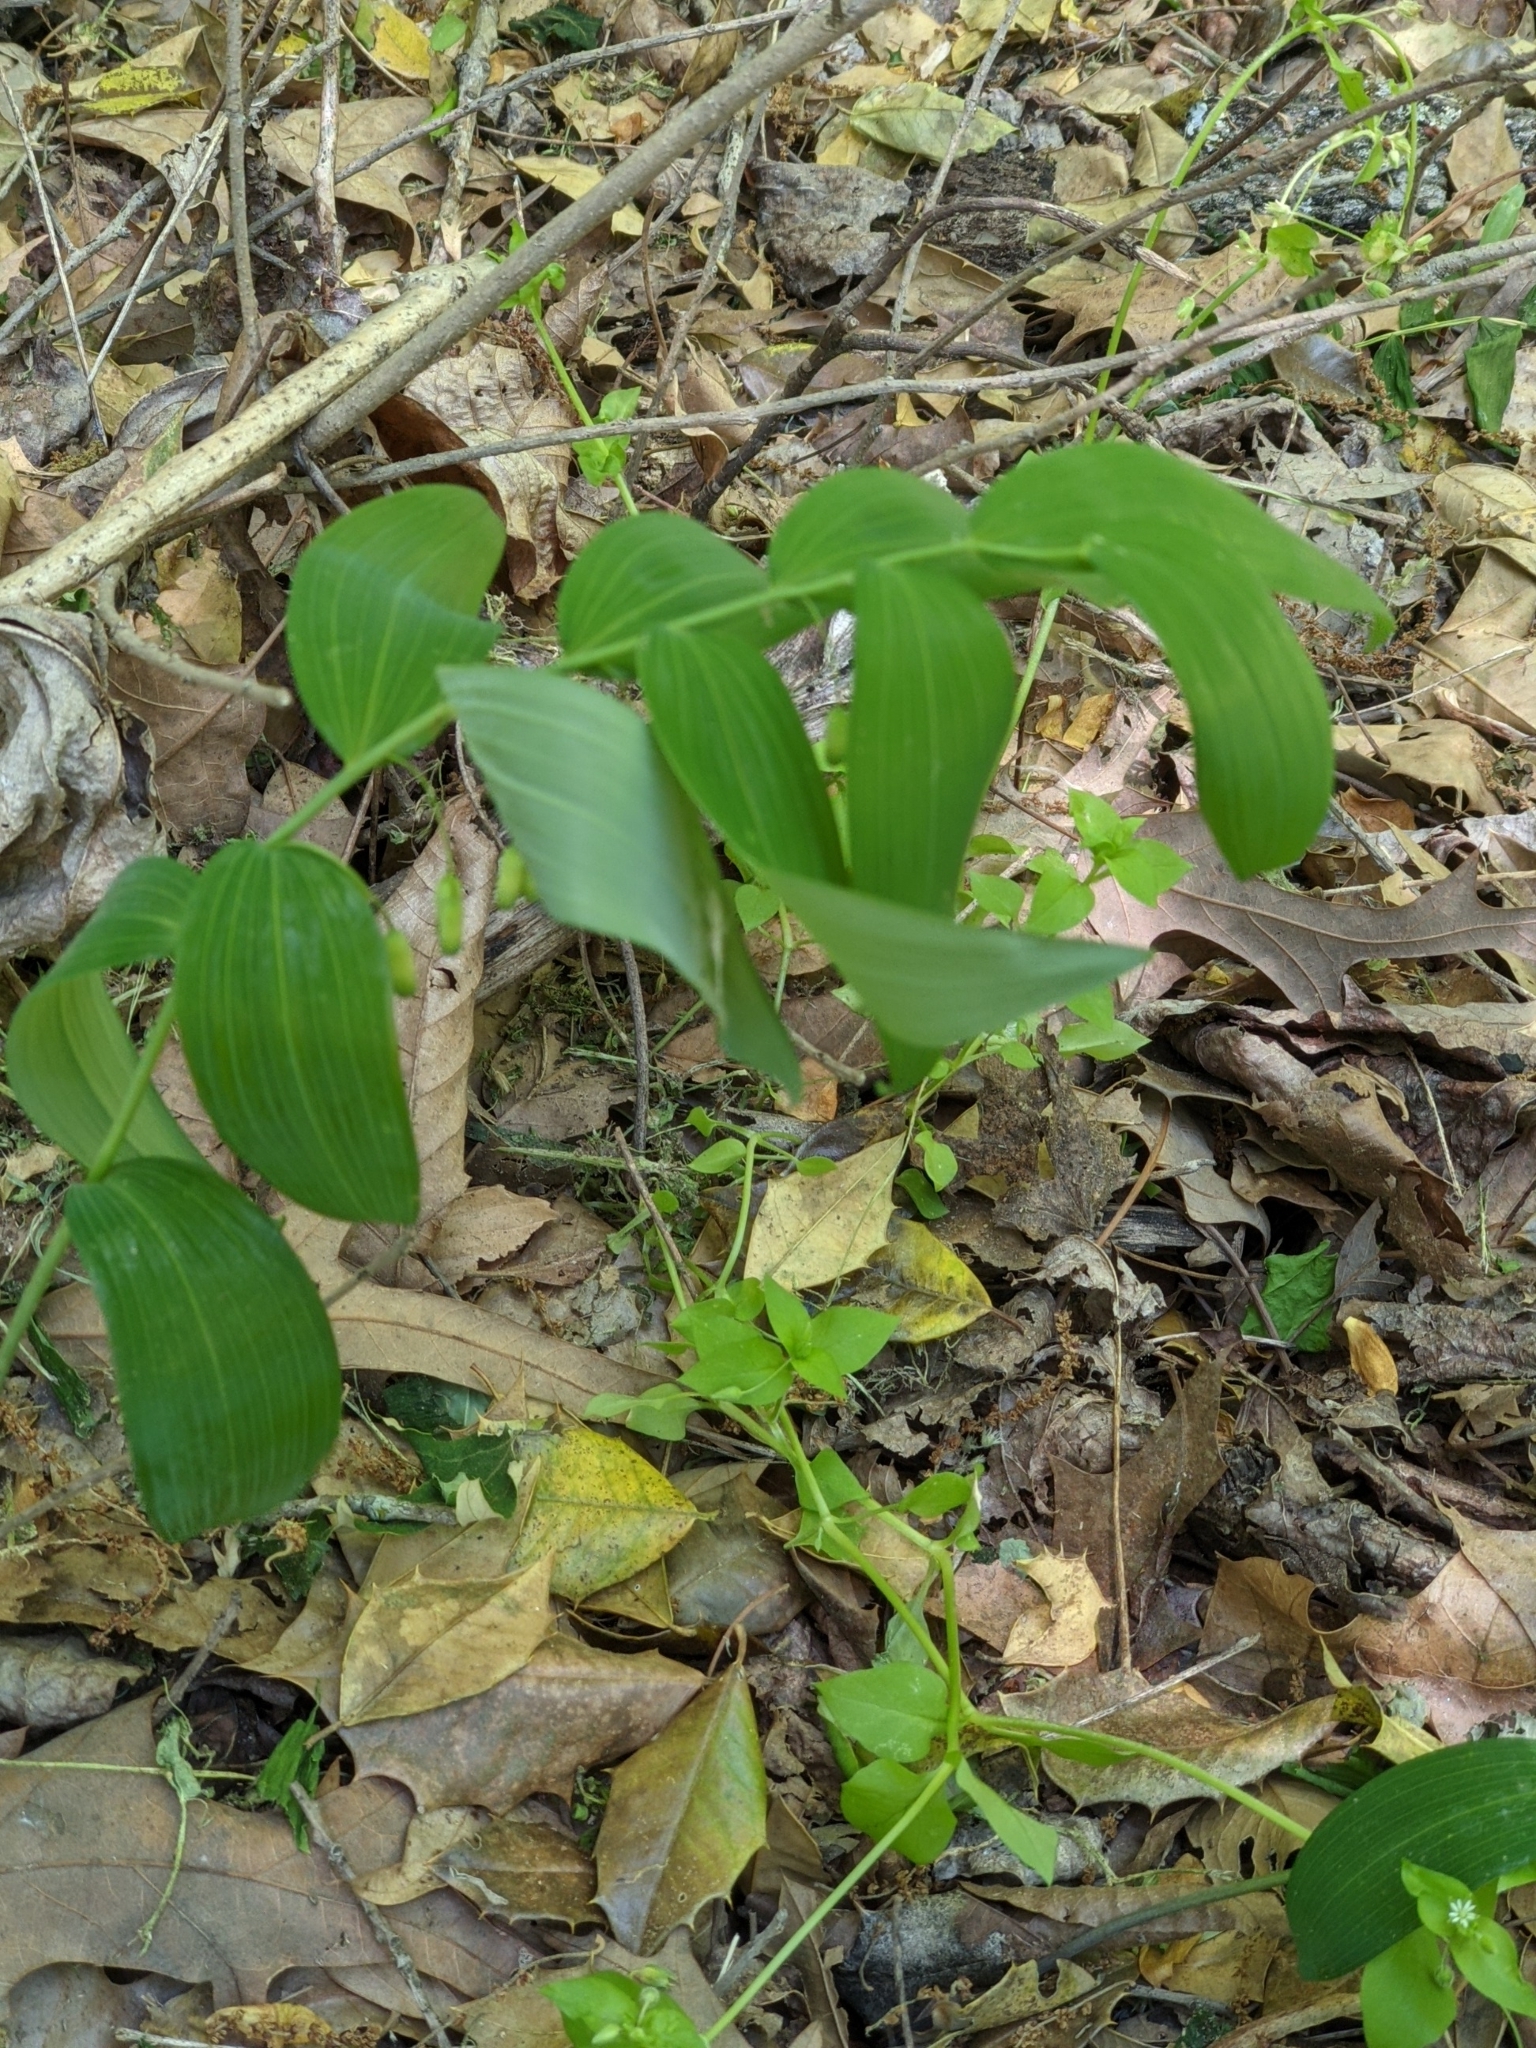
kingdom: Plantae
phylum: Tracheophyta
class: Liliopsida
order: Asparagales
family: Asparagaceae
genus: Polygonatum
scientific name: Polygonatum biflorum
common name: American solomon's-seal
